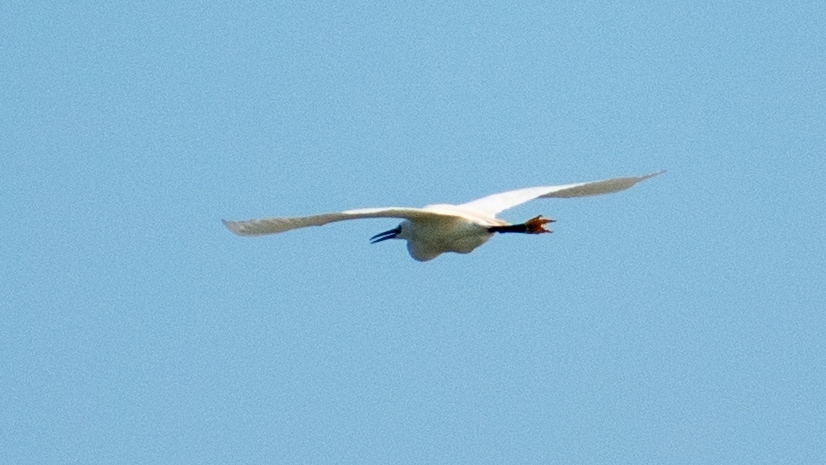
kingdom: Animalia
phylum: Chordata
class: Aves
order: Pelecaniformes
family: Ardeidae
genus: Ardea
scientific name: Ardea alba
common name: Great egret
